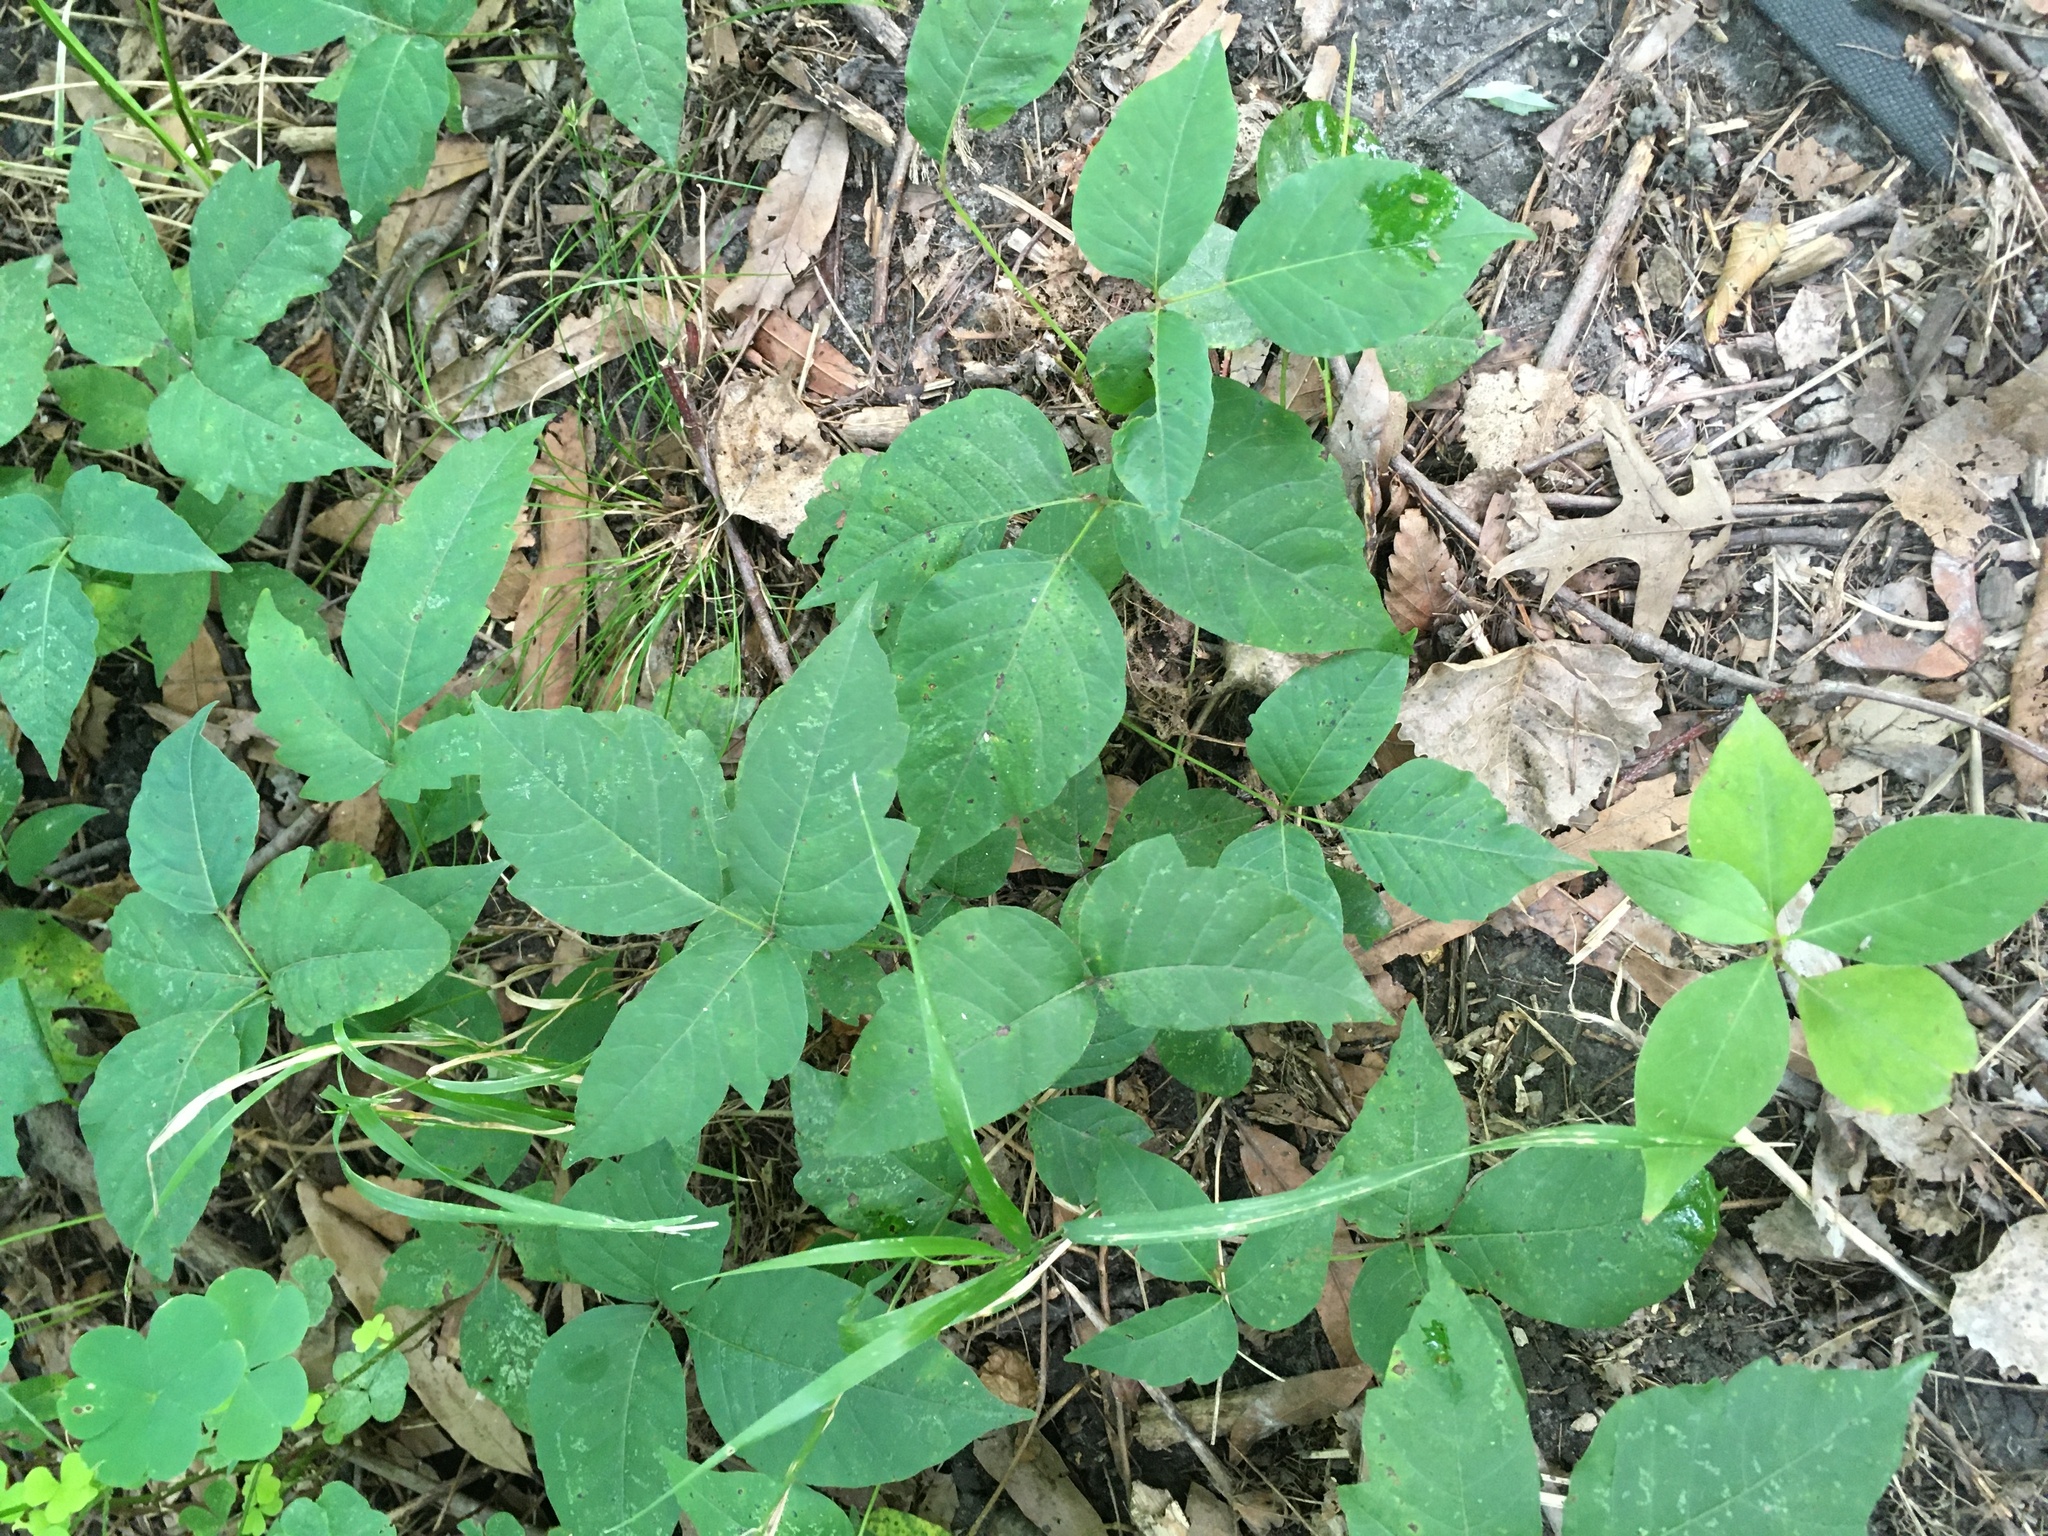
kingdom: Plantae
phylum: Tracheophyta
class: Magnoliopsida
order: Sapindales
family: Anacardiaceae
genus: Toxicodendron
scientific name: Toxicodendron radicans
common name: Poison ivy
